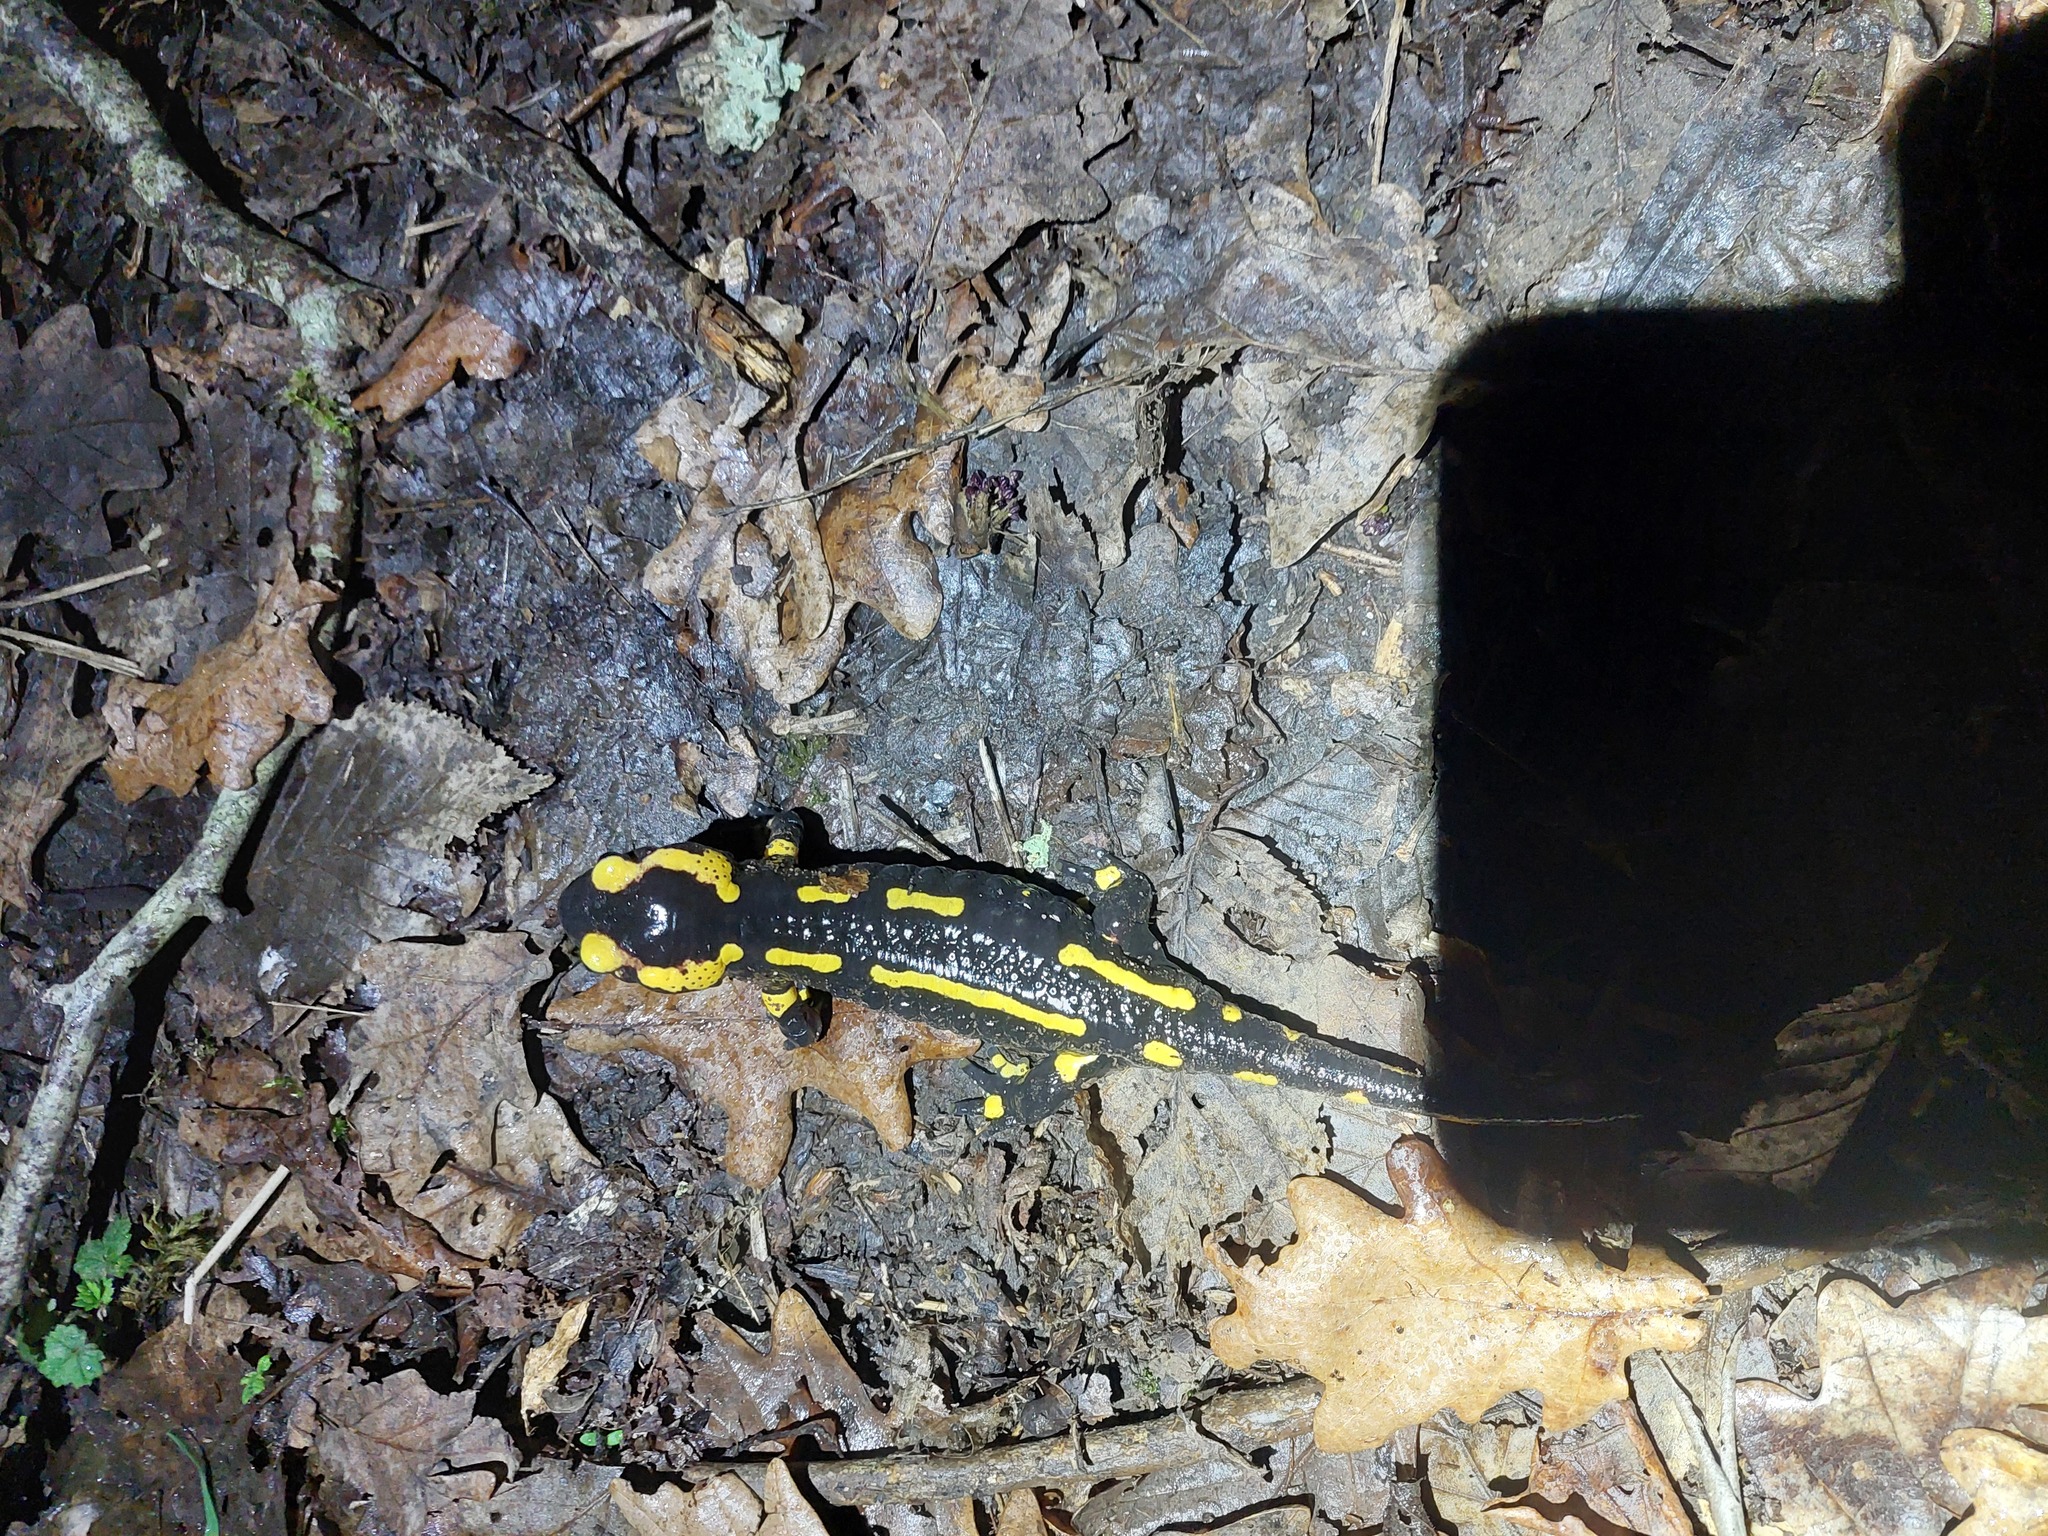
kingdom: Animalia
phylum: Chordata
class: Amphibia
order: Caudata
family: Salamandridae
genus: Salamandra
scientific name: Salamandra salamandra
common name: Fire salamander
